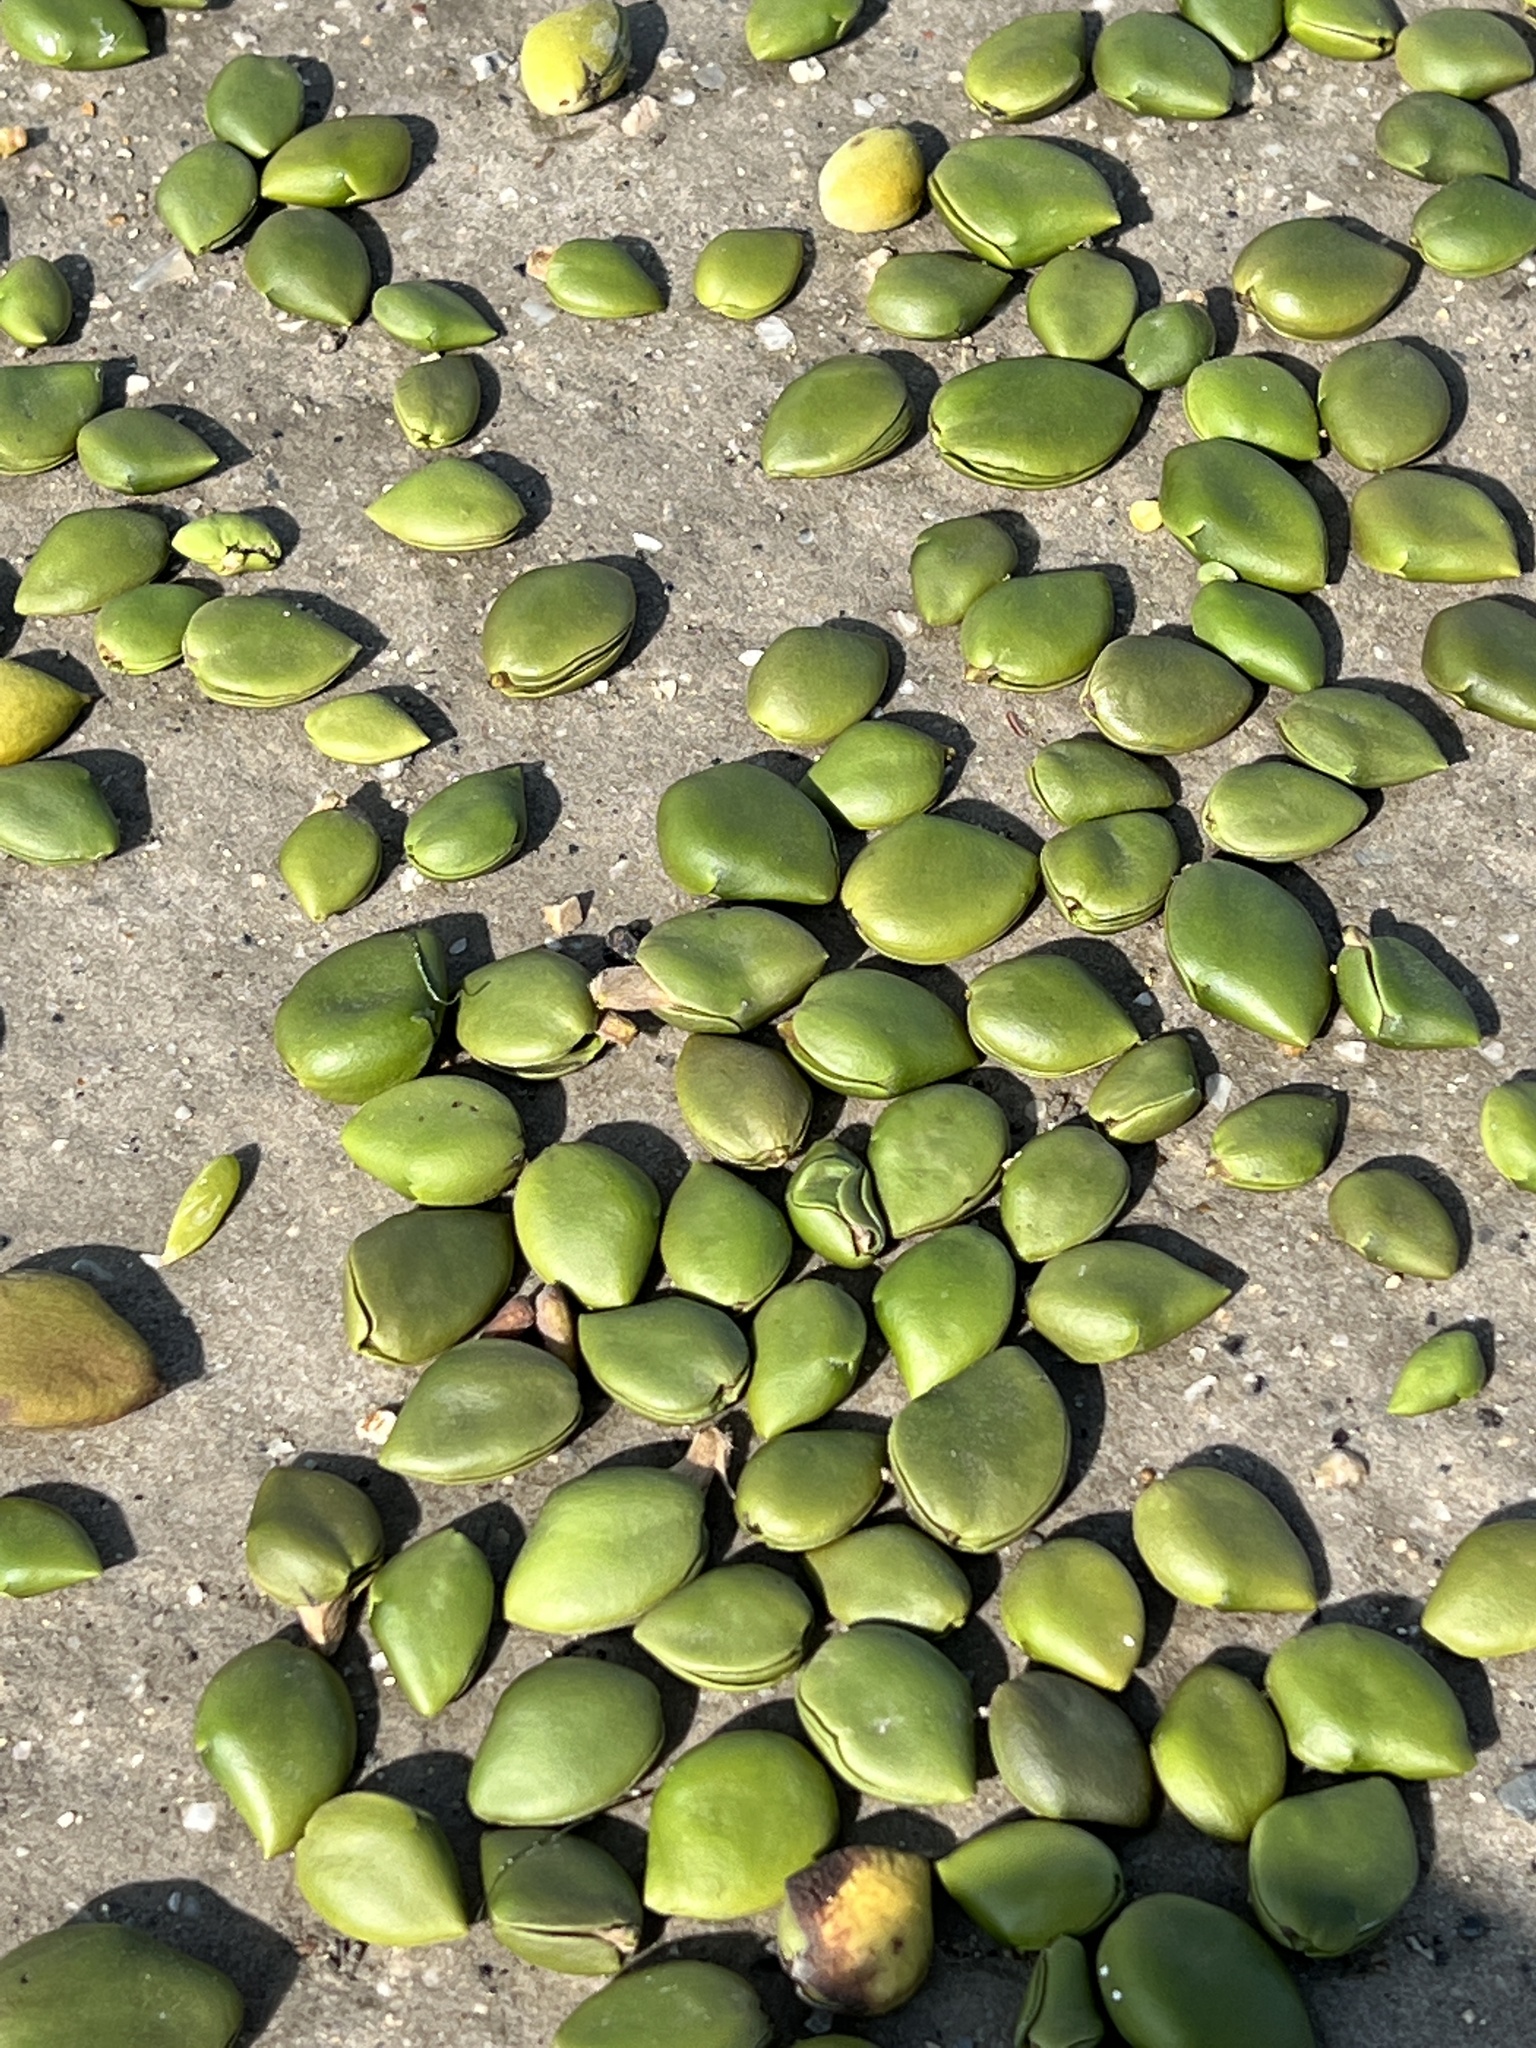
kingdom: Plantae
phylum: Tracheophyta
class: Magnoliopsida
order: Lamiales
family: Acanthaceae
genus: Avicennia
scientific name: Avicennia germinans
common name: Black mangrove
